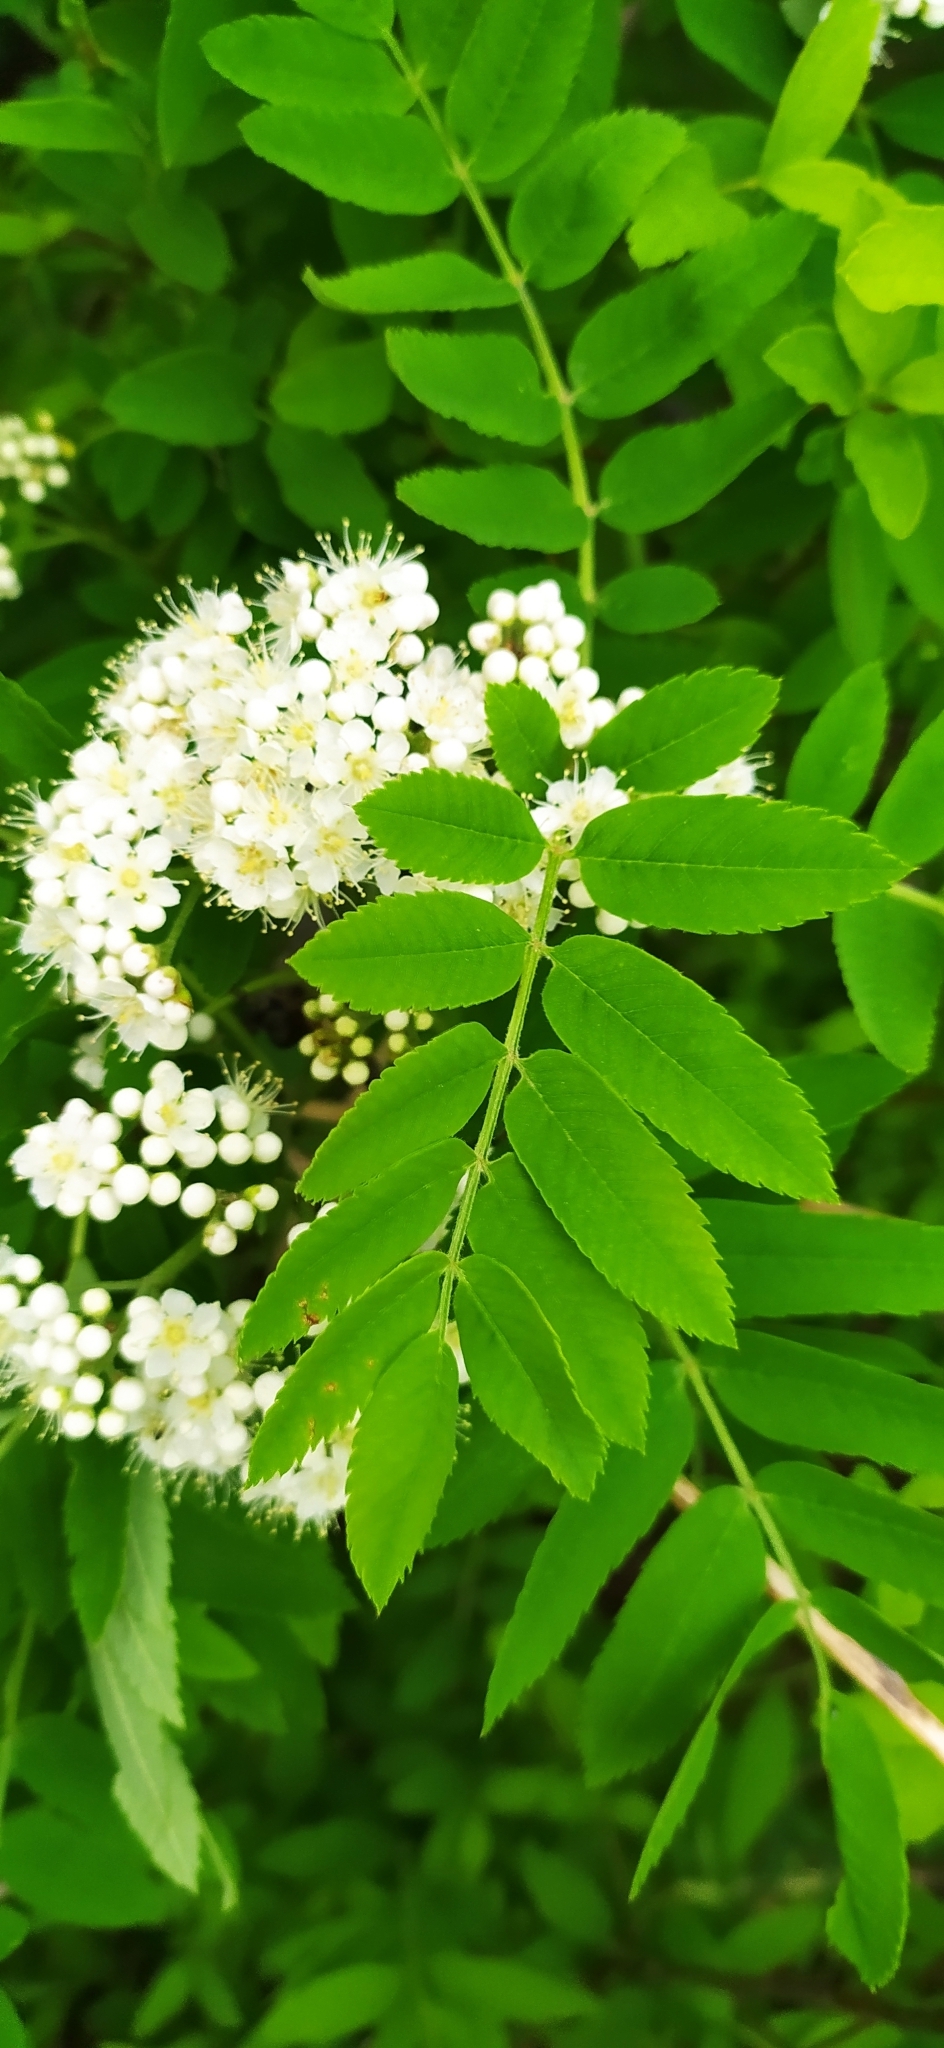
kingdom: Plantae
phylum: Tracheophyta
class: Magnoliopsida
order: Rosales
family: Rosaceae
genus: Sorbus
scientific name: Sorbus aucuparia
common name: Rowan
